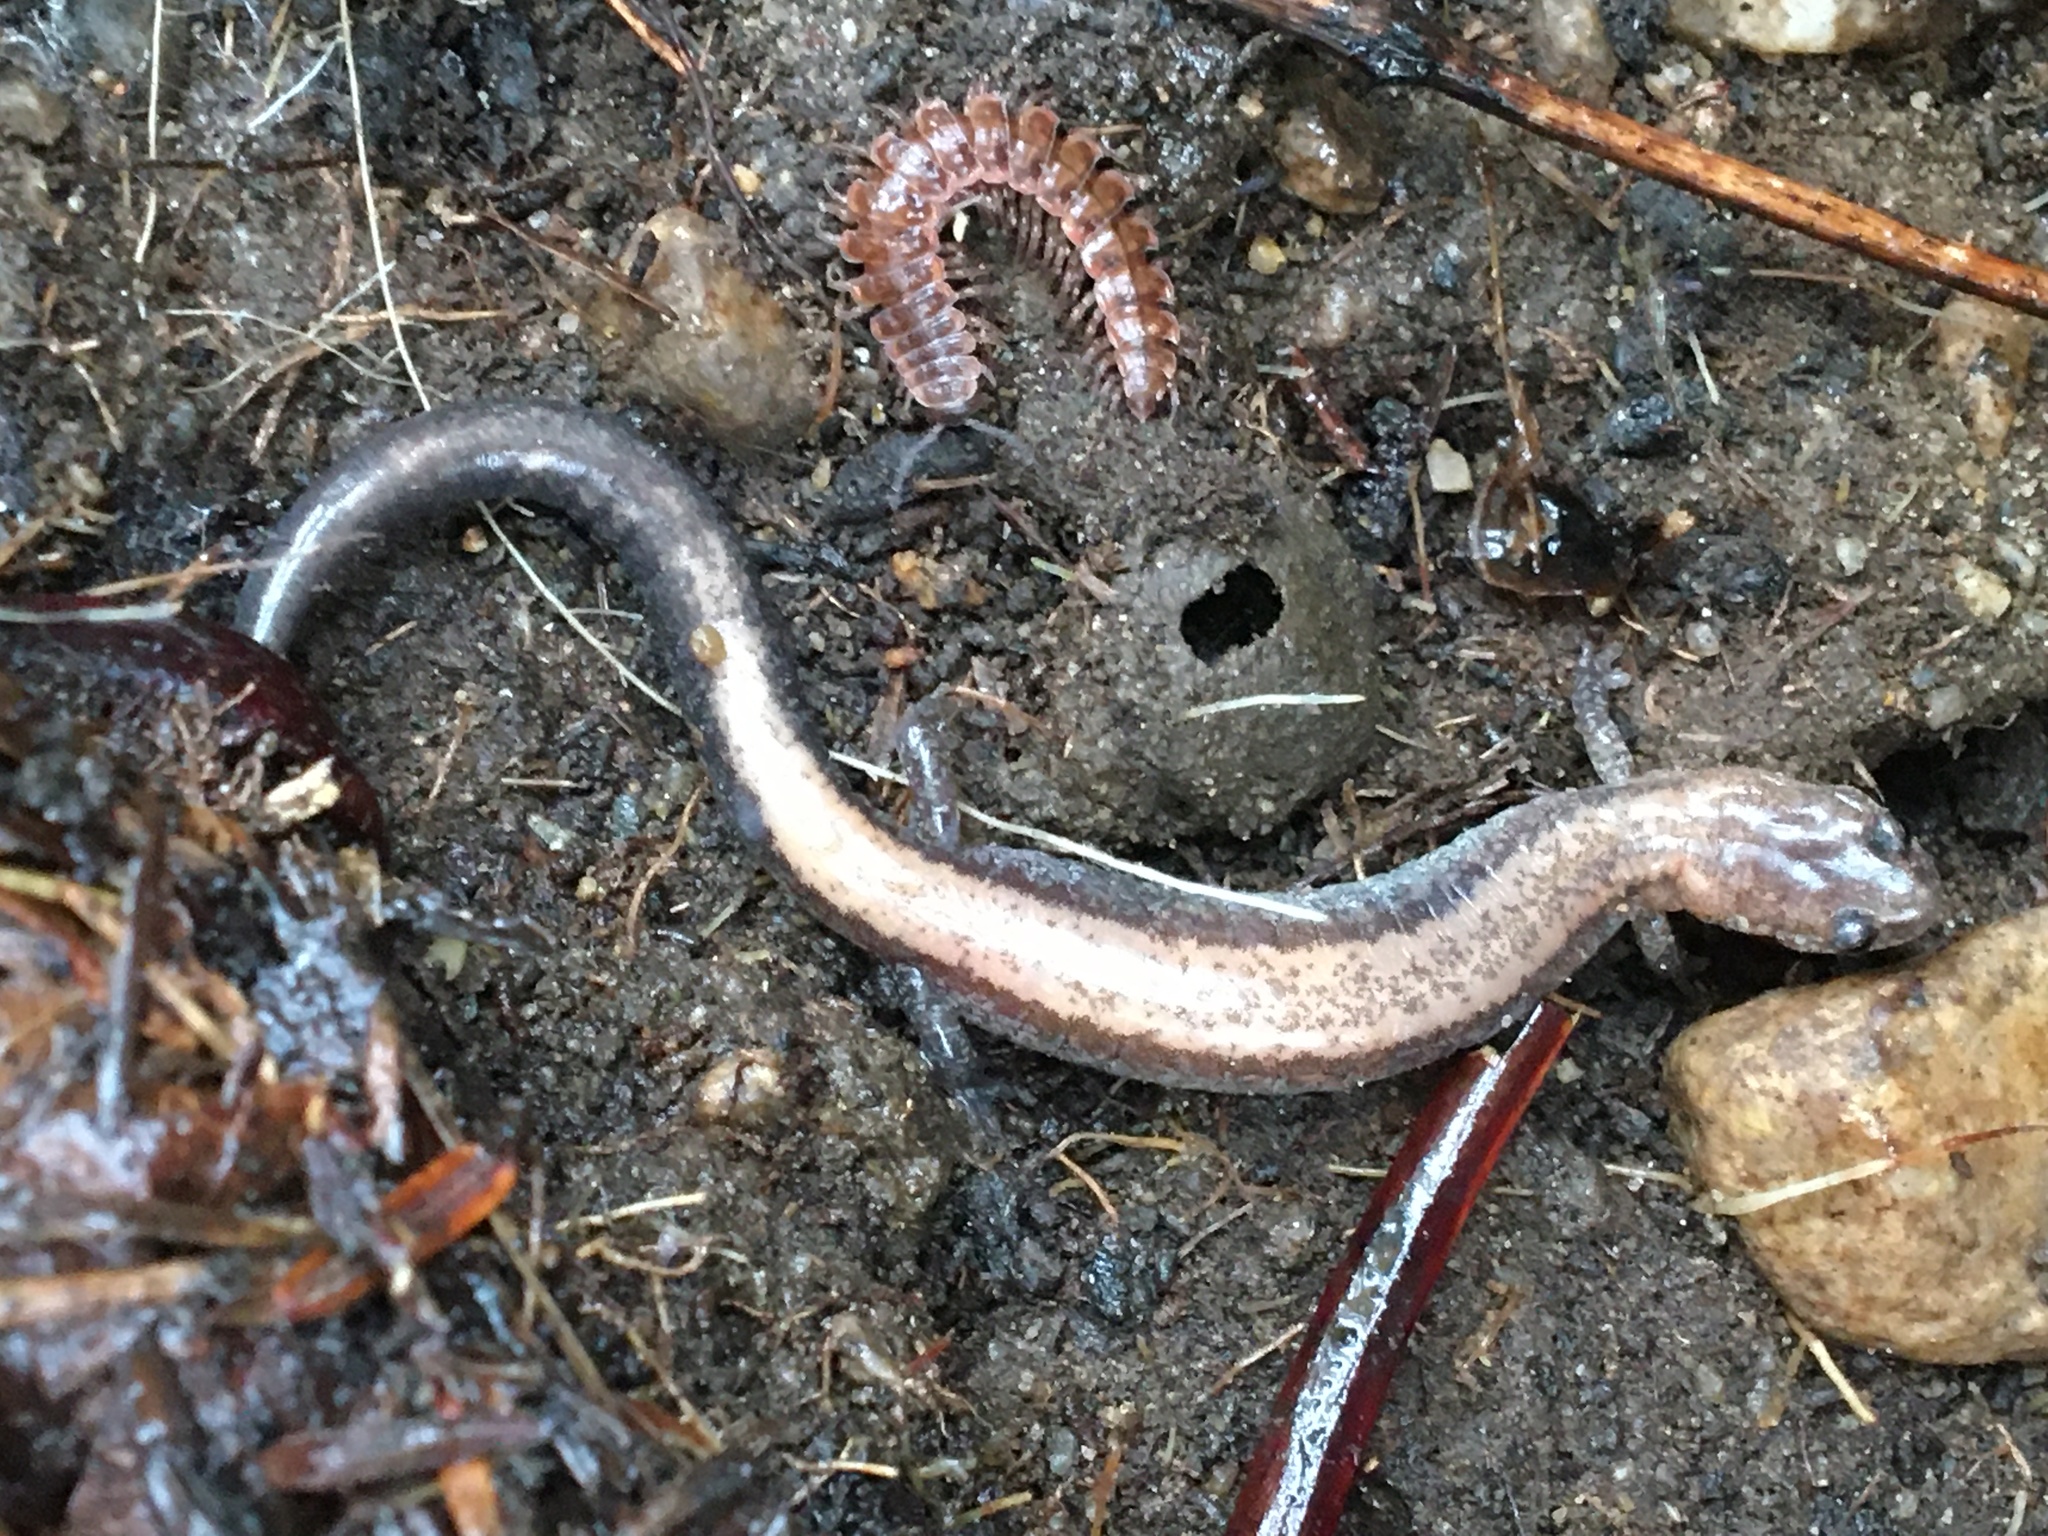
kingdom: Animalia
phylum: Chordata
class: Amphibia
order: Caudata
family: Plethodontidae
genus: Plethodon
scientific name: Plethodon cinereus
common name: Redback salamander
